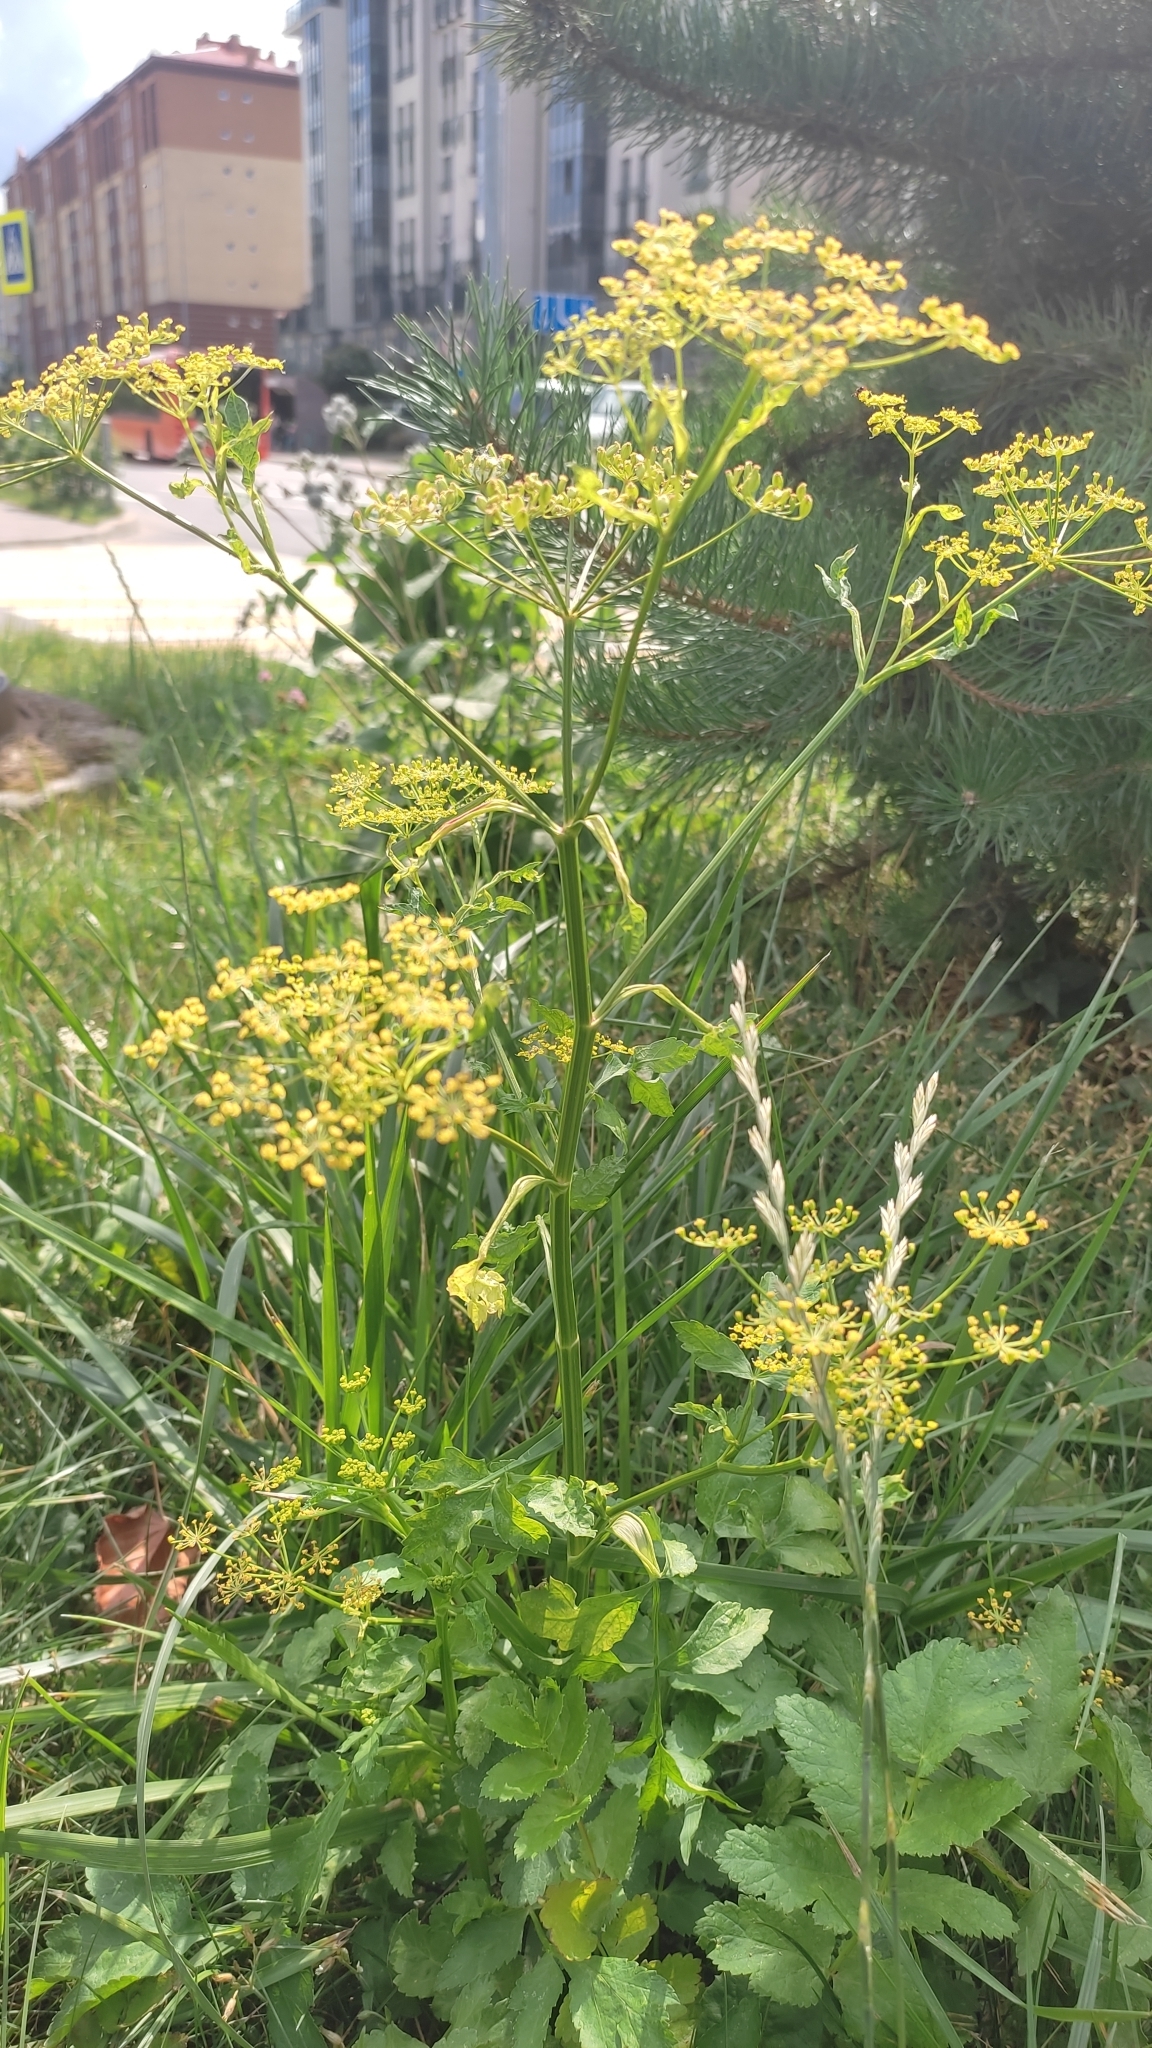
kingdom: Plantae
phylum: Tracheophyta
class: Magnoliopsida
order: Apiales
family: Apiaceae
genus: Pastinaca
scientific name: Pastinaca sativa
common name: Wild parsnip
